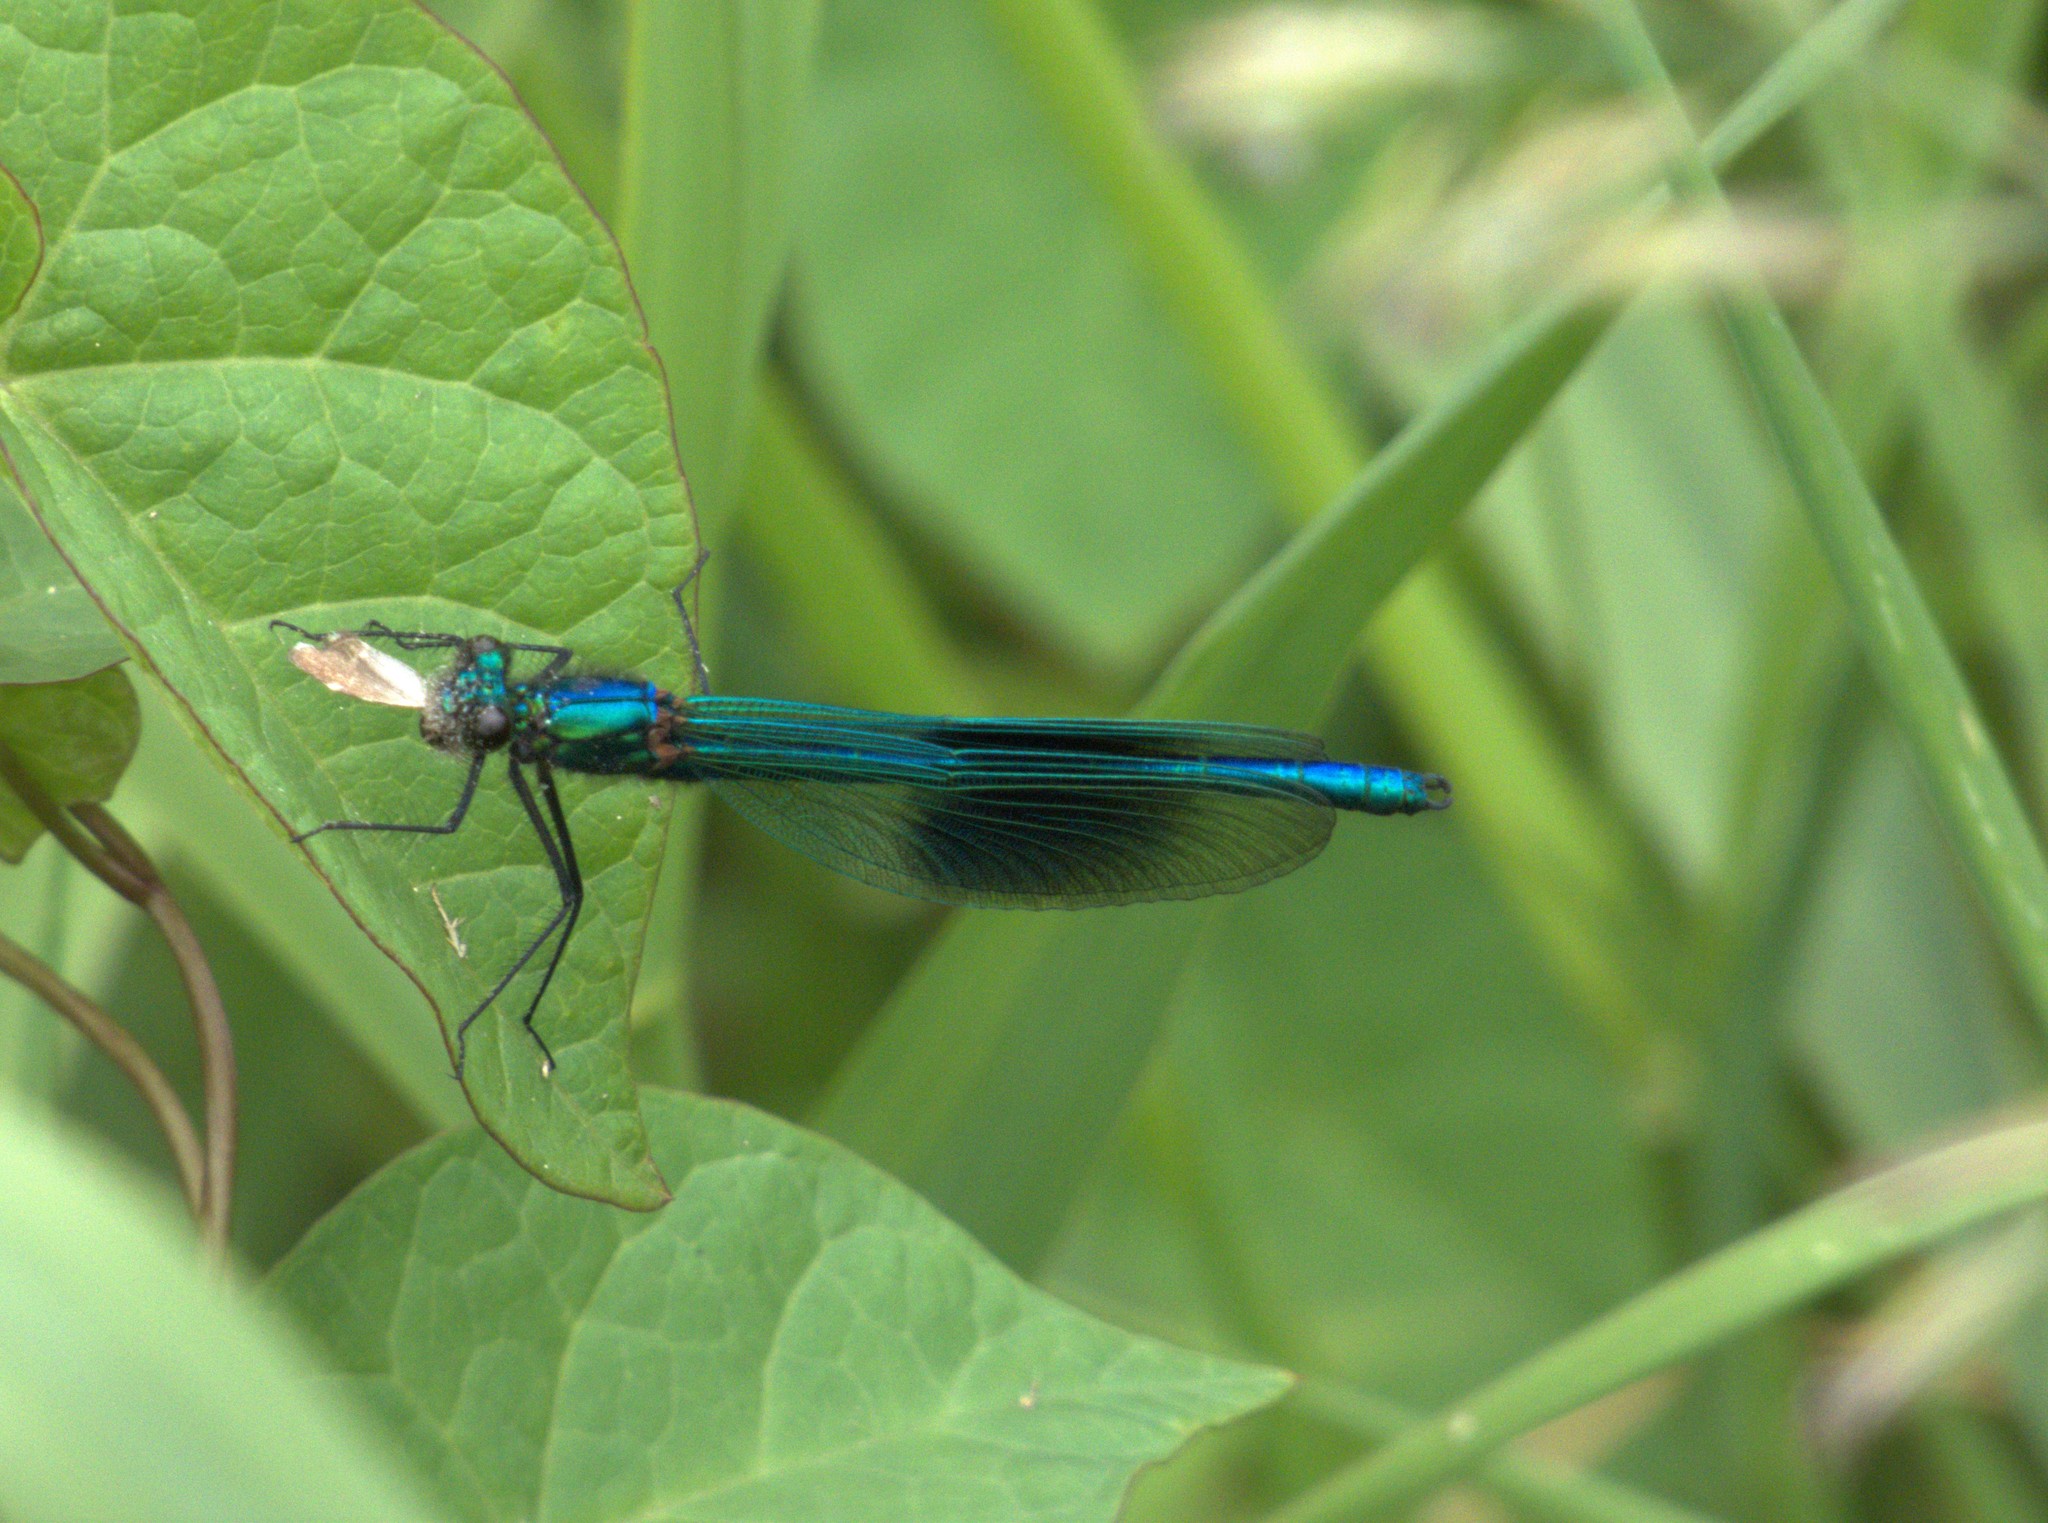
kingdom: Animalia
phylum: Arthropoda
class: Insecta
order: Odonata
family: Calopterygidae
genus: Calopteryx
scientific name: Calopteryx splendens
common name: Banded demoiselle
